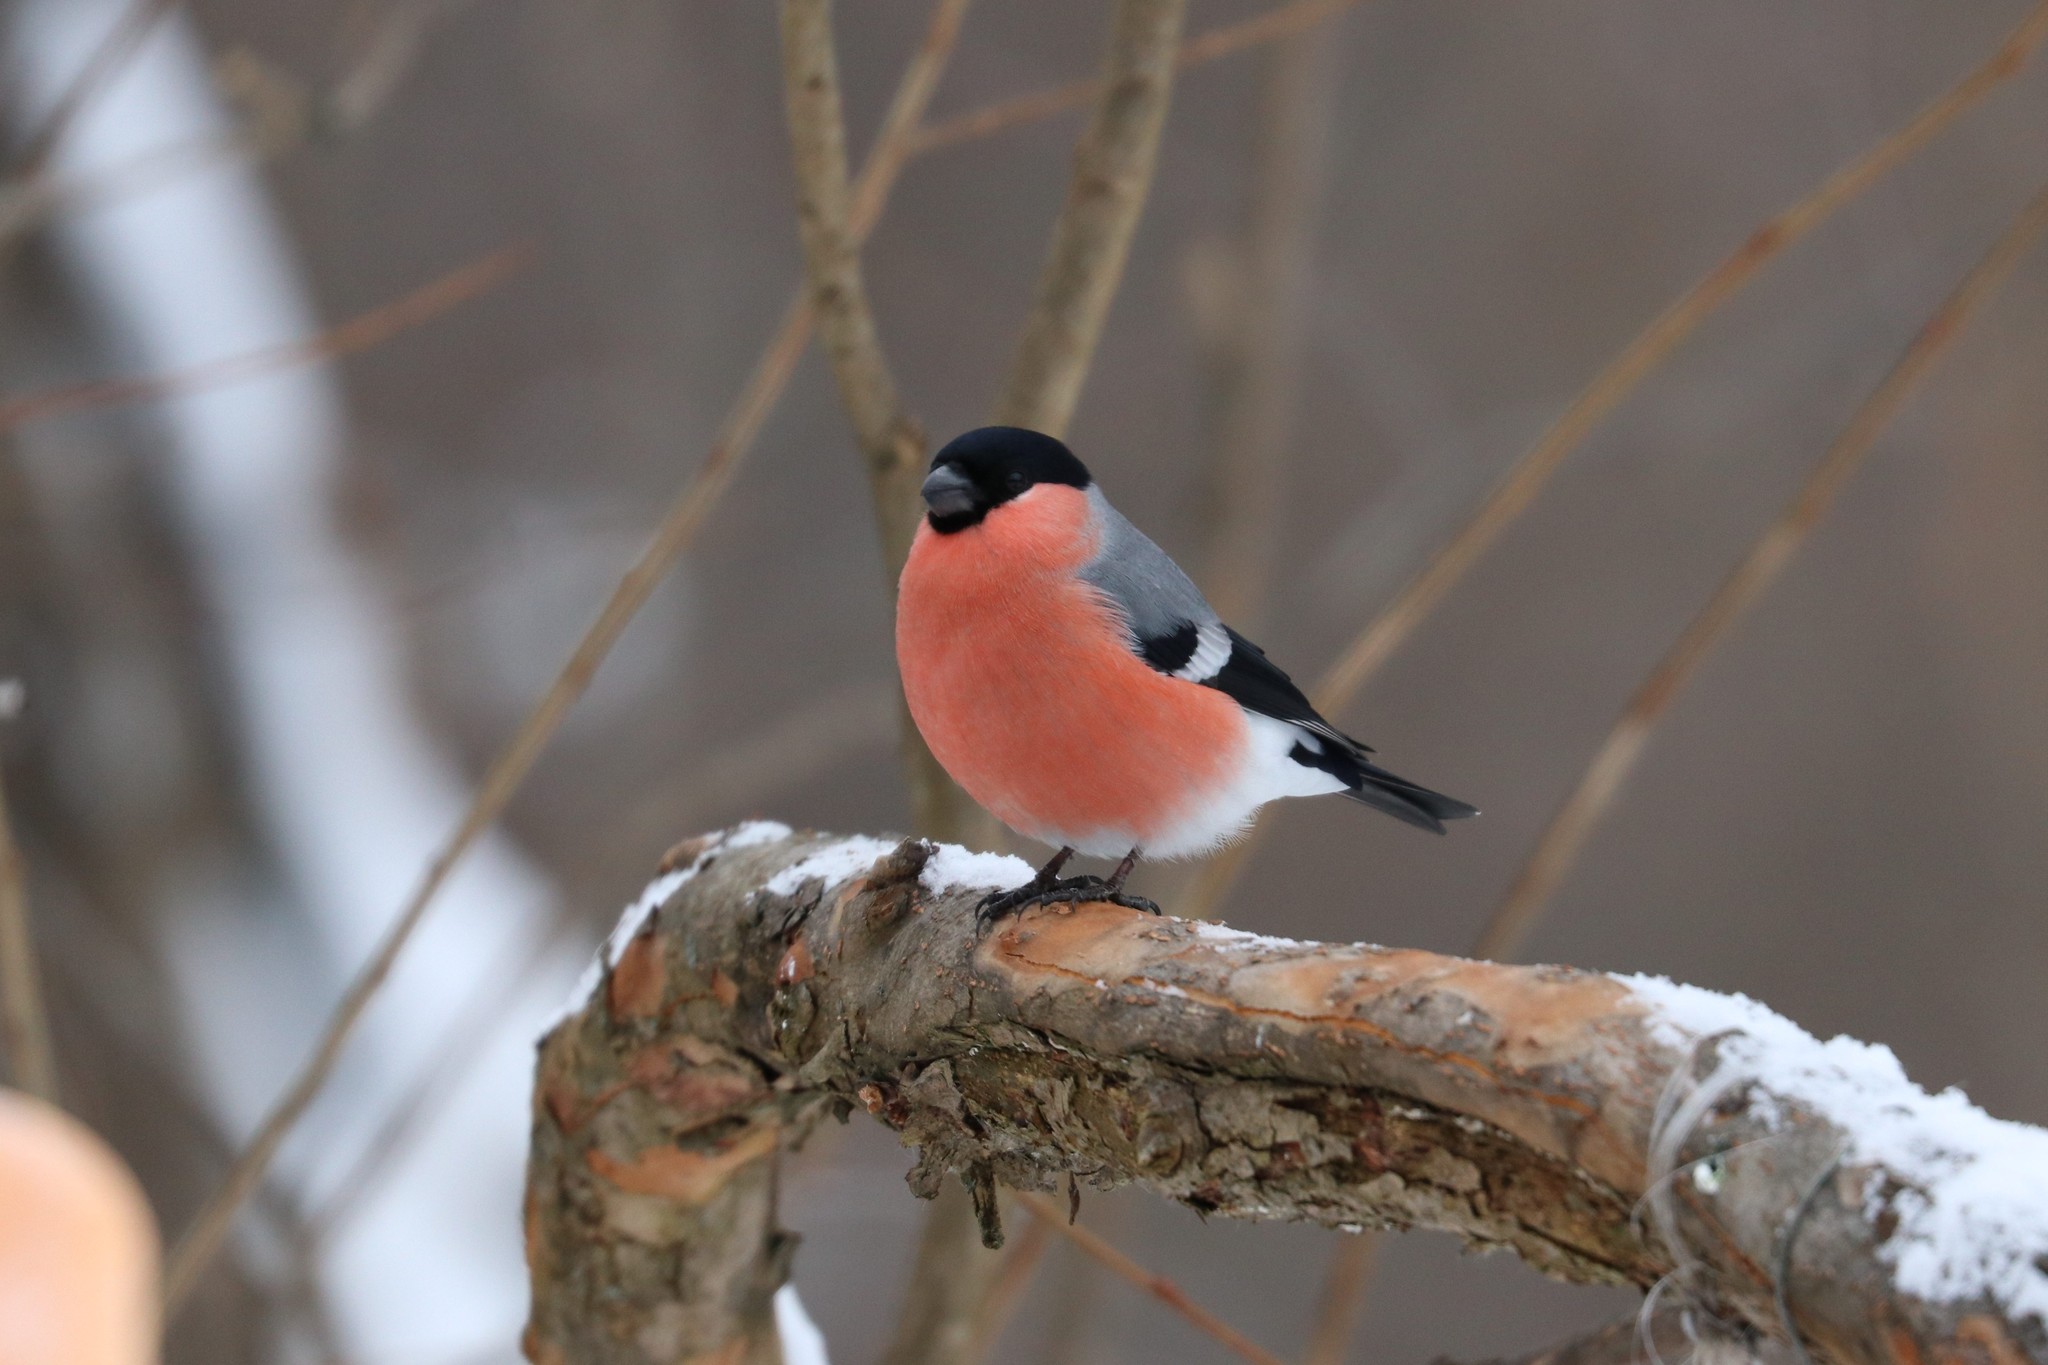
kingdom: Animalia
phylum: Chordata
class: Aves
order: Passeriformes
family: Fringillidae
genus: Pyrrhula
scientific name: Pyrrhula pyrrhula
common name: Eurasian bullfinch
